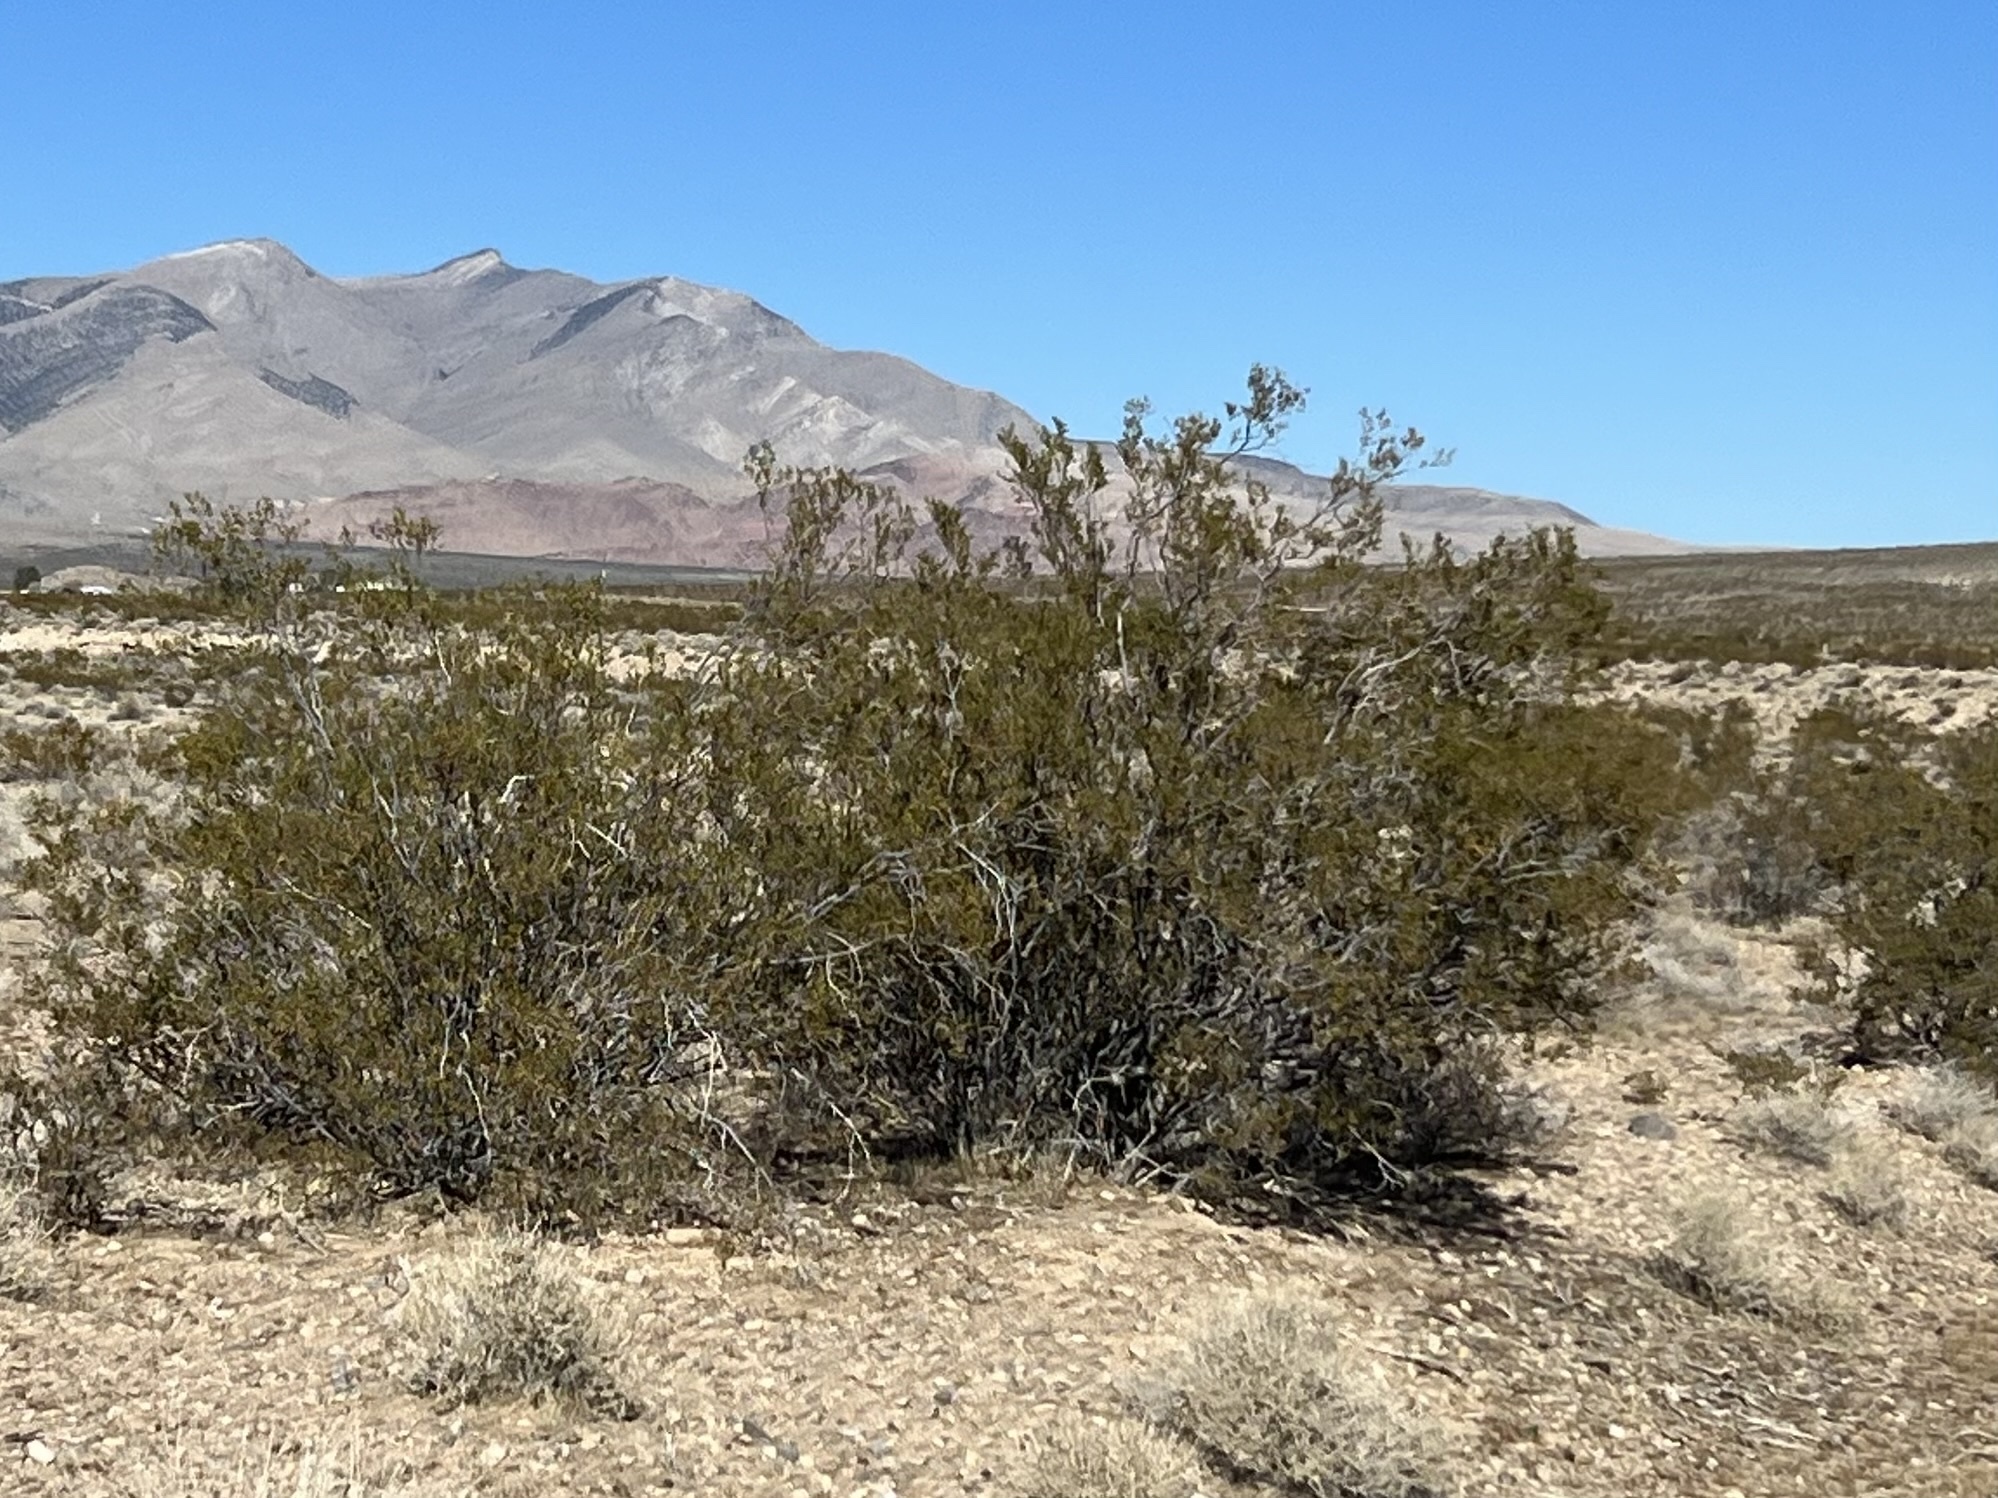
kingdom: Plantae
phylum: Tracheophyta
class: Magnoliopsida
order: Zygophyllales
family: Zygophyllaceae
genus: Larrea
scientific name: Larrea tridentata
